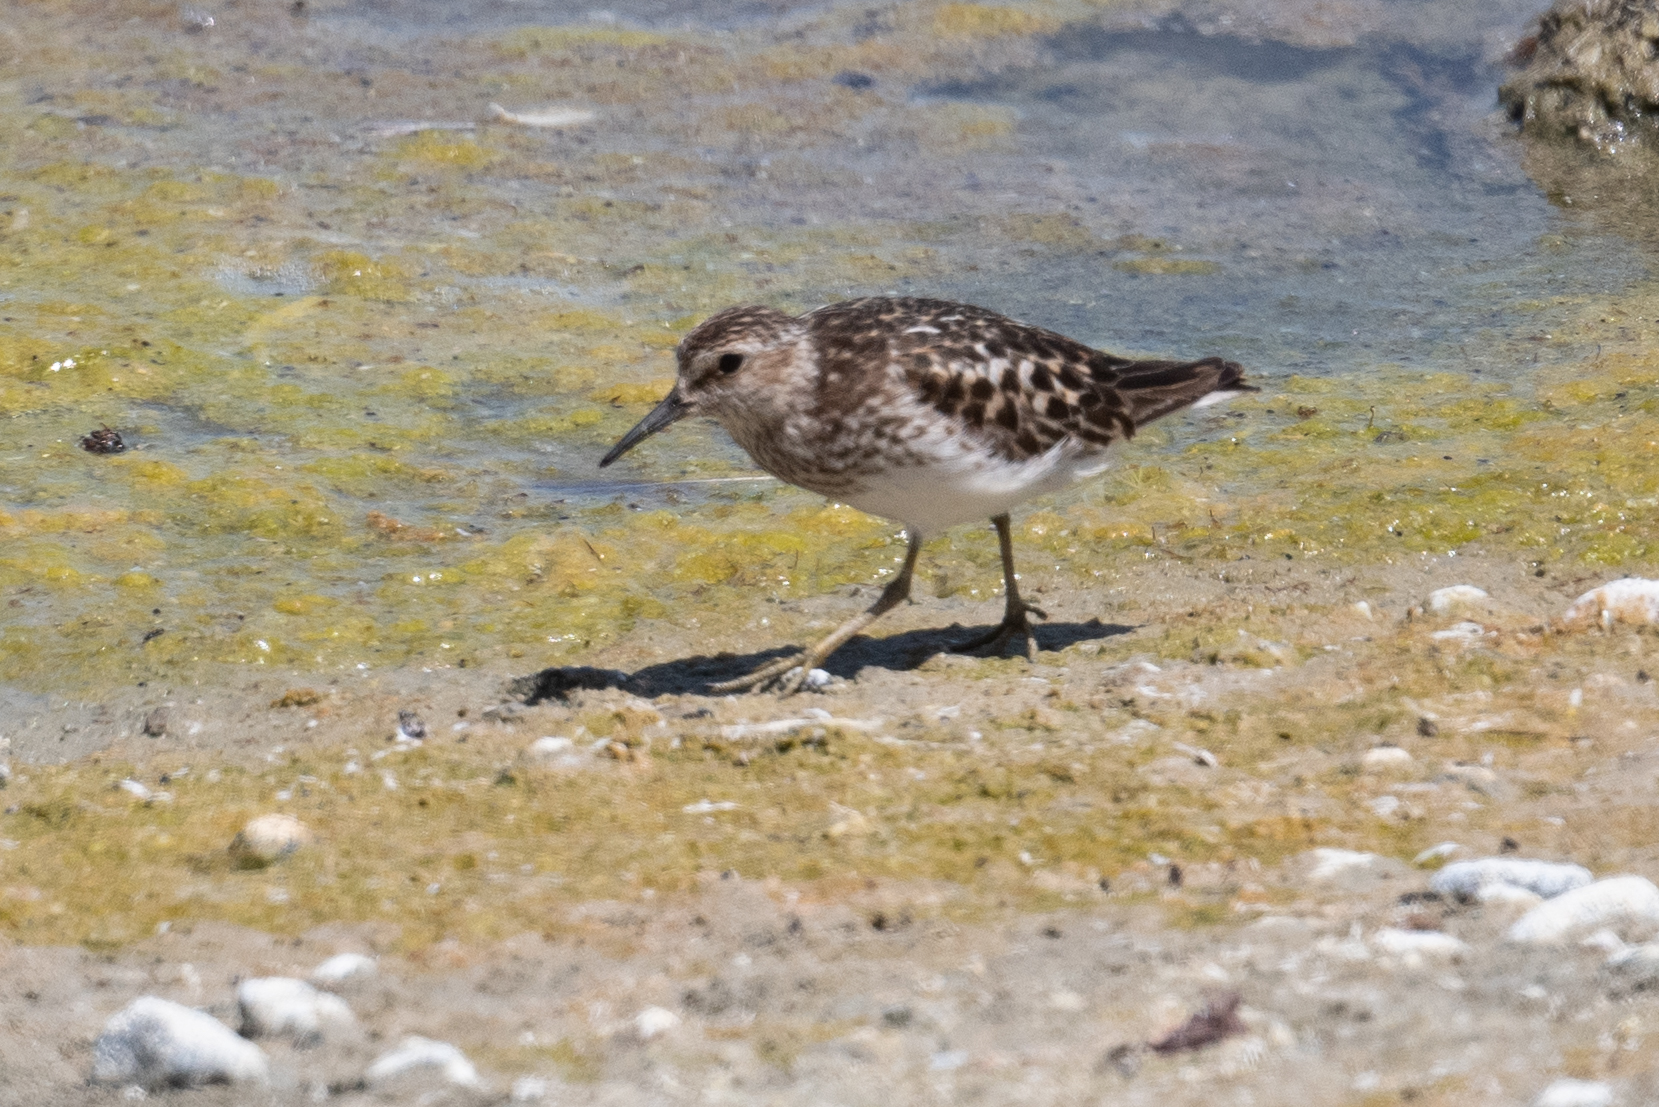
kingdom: Animalia
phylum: Chordata
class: Aves
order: Charadriiformes
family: Scolopacidae
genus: Calidris
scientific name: Calidris minutilla
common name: Least sandpiper
